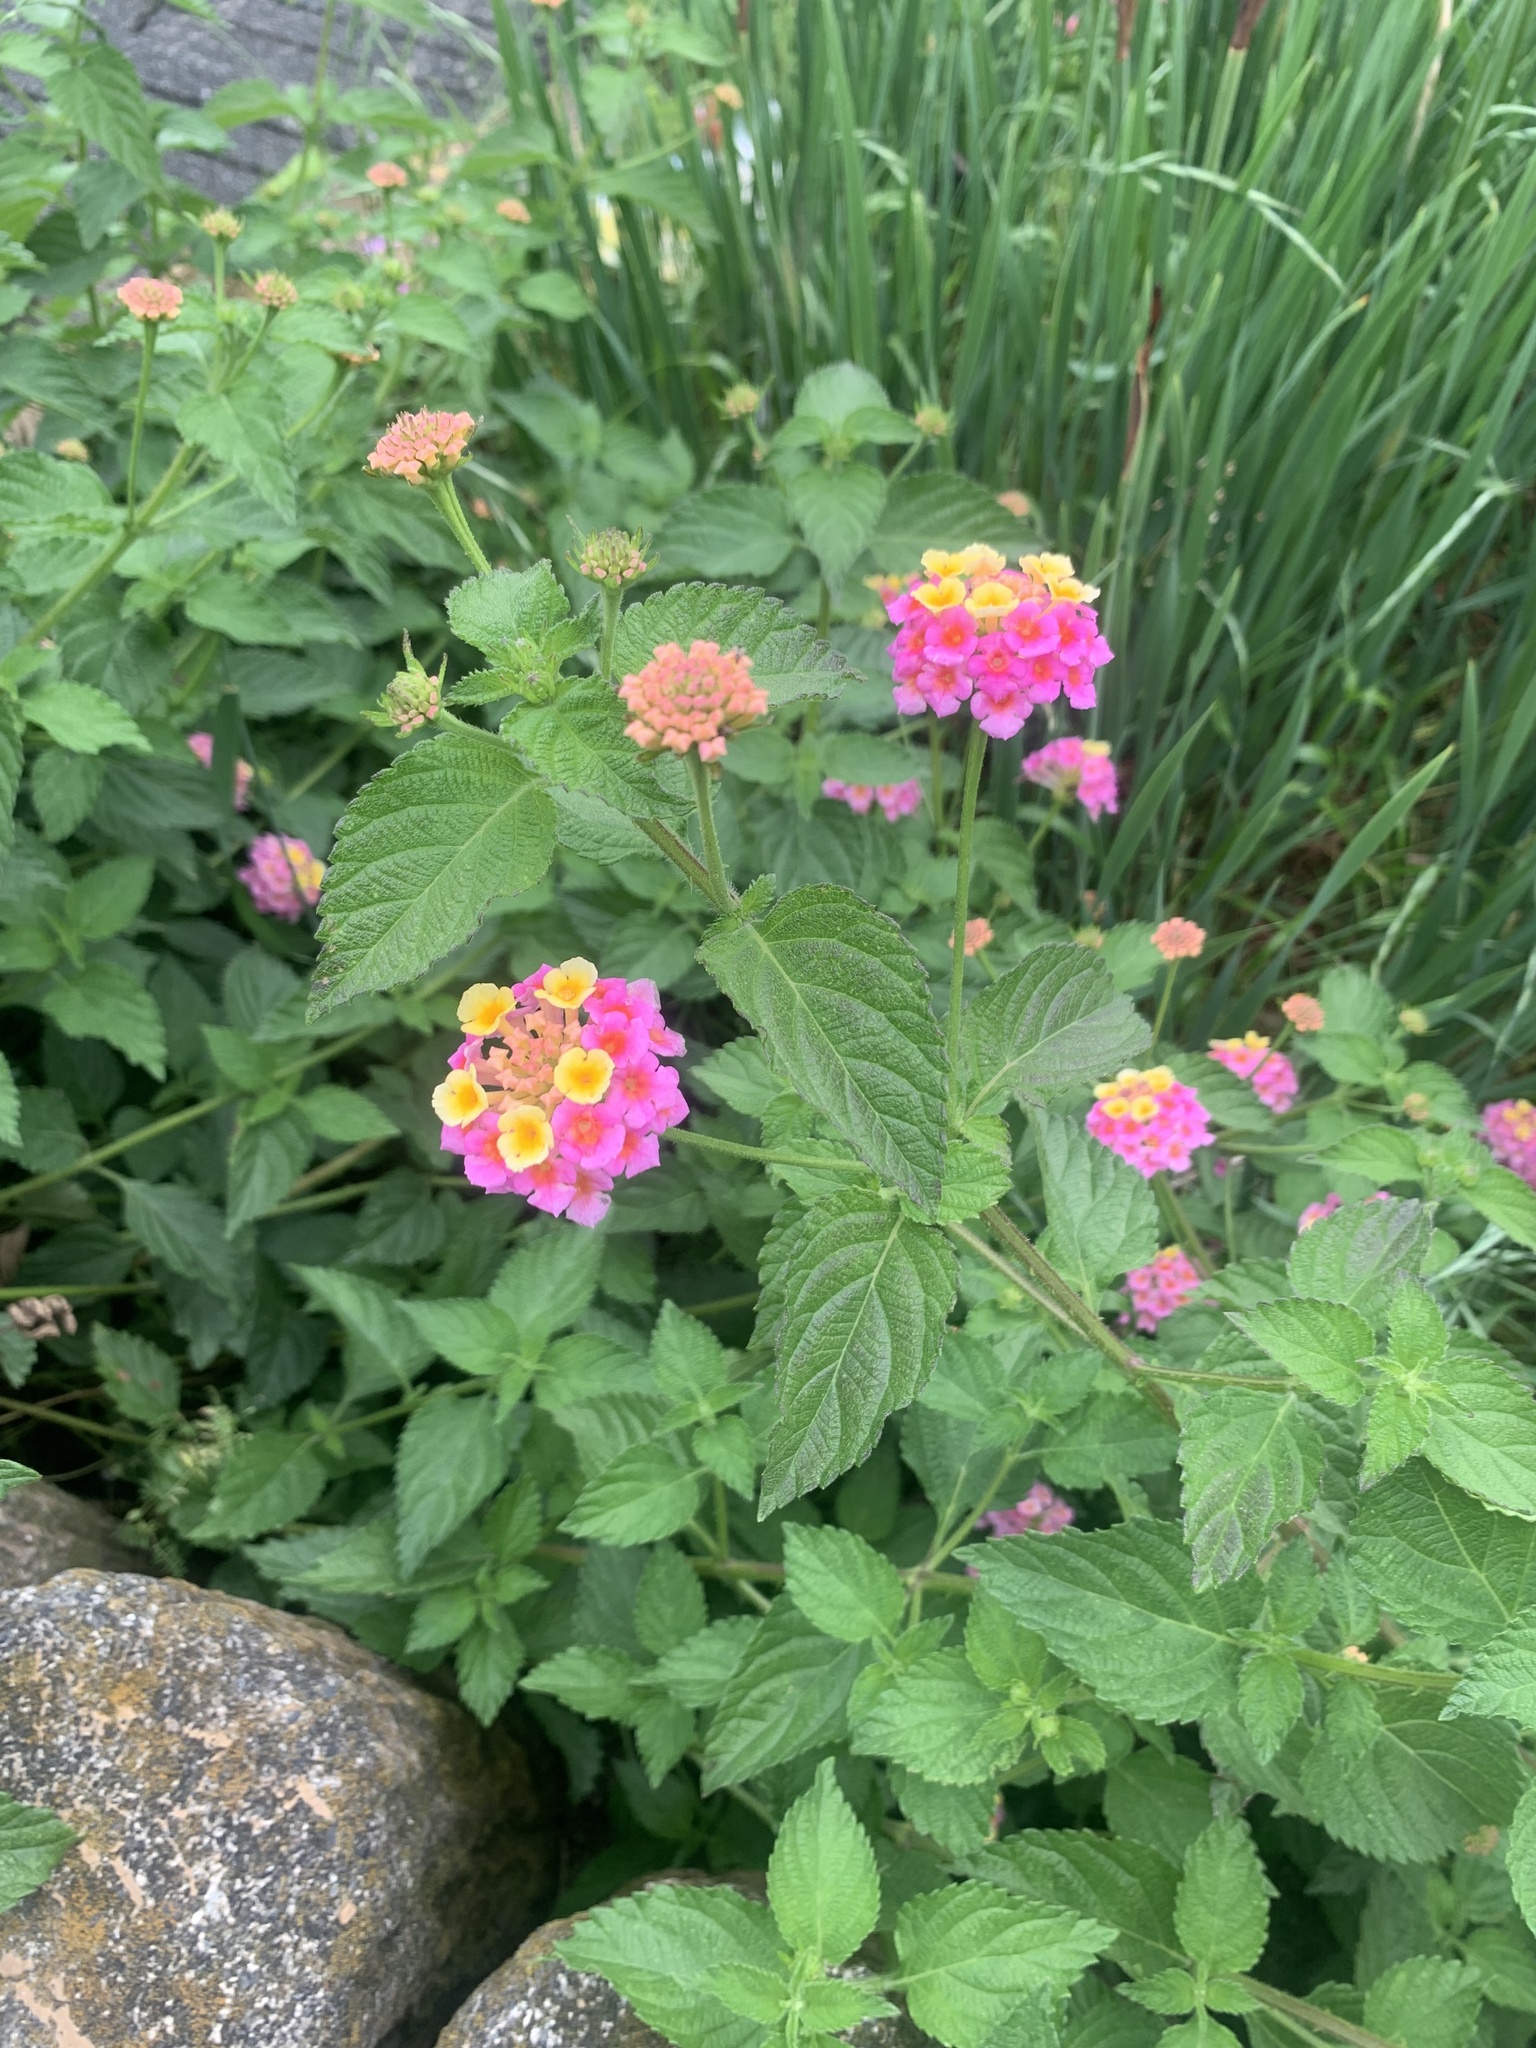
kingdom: Plantae
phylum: Tracheophyta
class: Magnoliopsida
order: Lamiales
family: Verbenaceae
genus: Lantana
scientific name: Lantana camara
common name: Lantana
